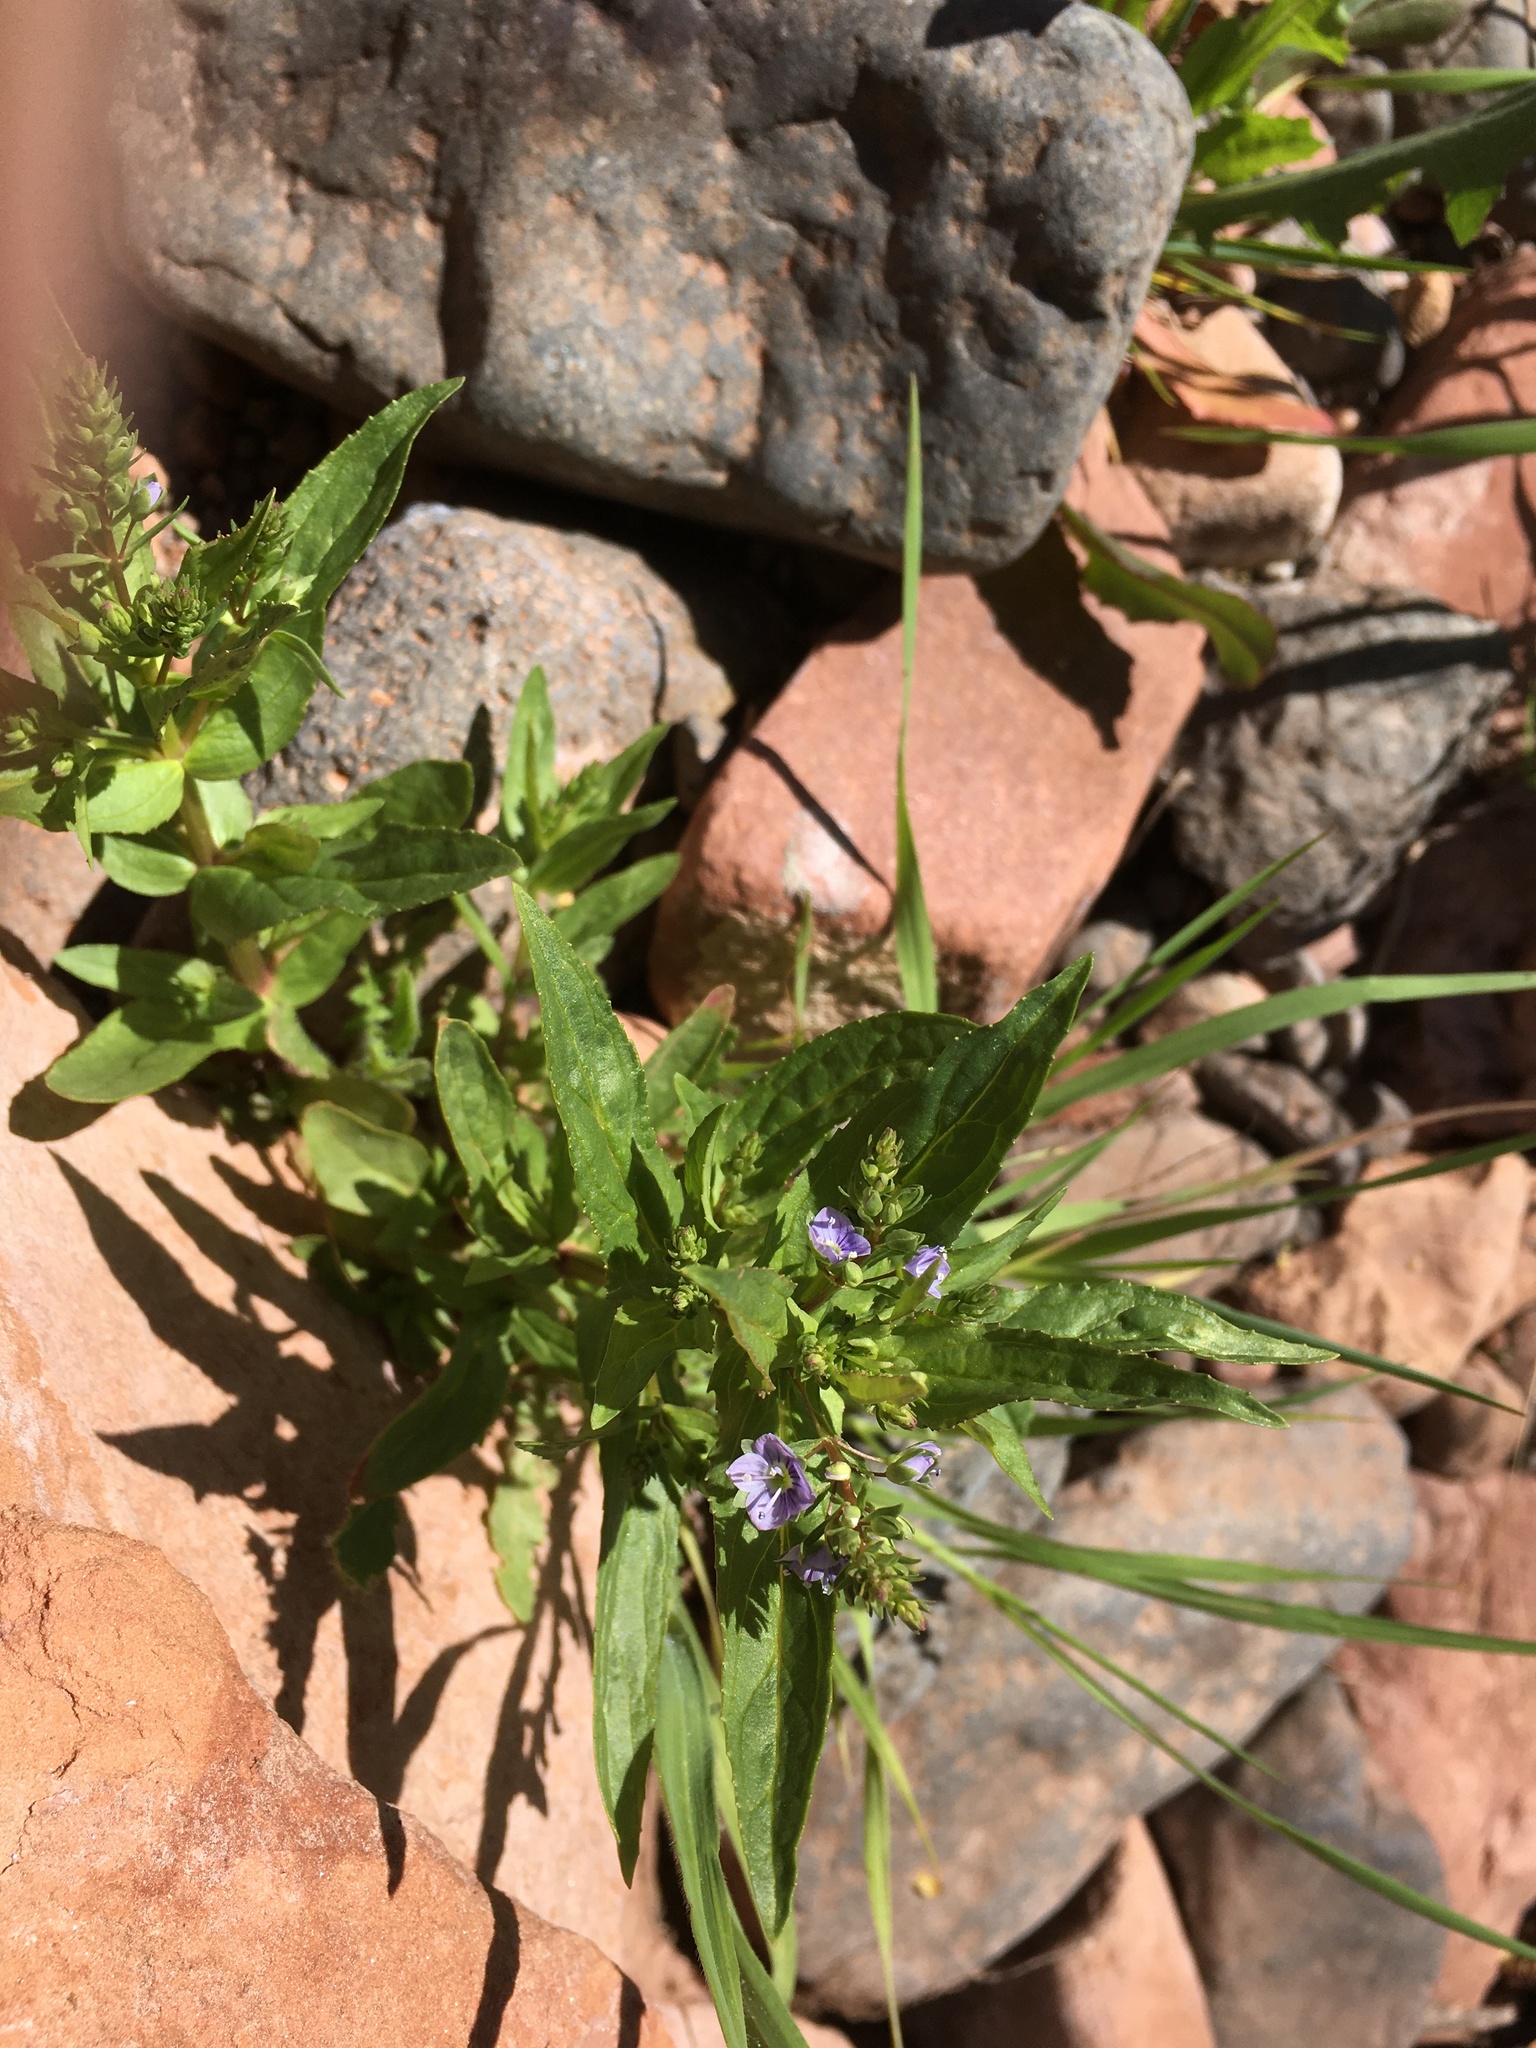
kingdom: Plantae
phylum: Tracheophyta
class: Magnoliopsida
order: Lamiales
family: Plantaginaceae
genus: Veronica
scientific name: Veronica anagallis-aquatica
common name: Water speedwell
